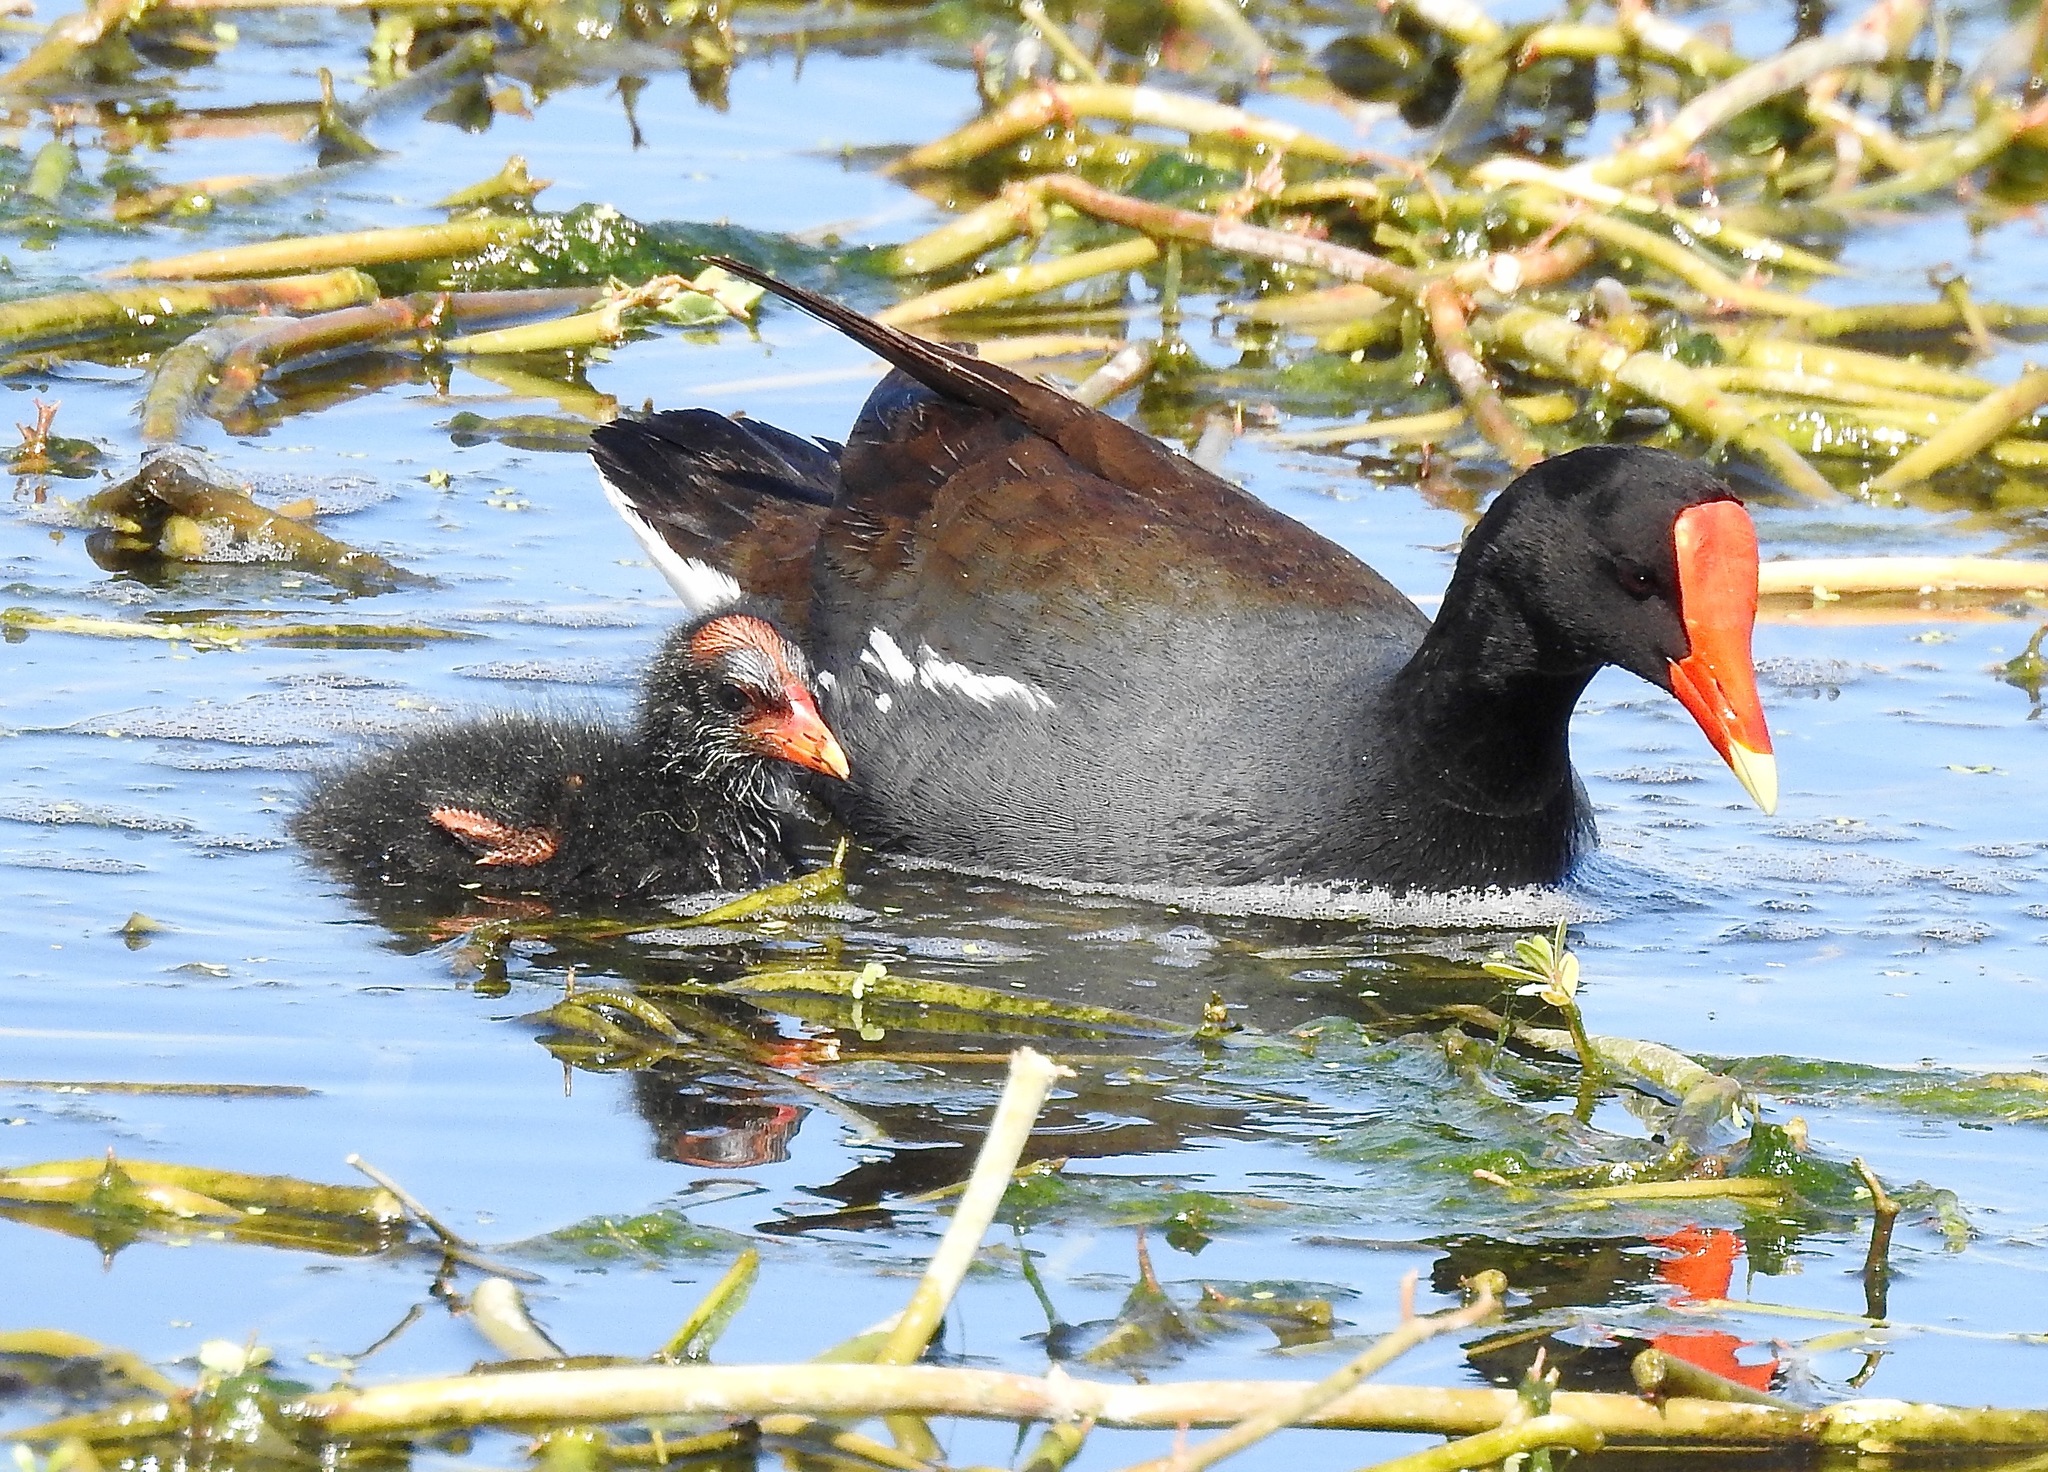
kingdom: Animalia
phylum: Chordata
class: Aves
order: Gruiformes
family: Rallidae
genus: Gallinula
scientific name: Gallinula chloropus
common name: Common moorhen
